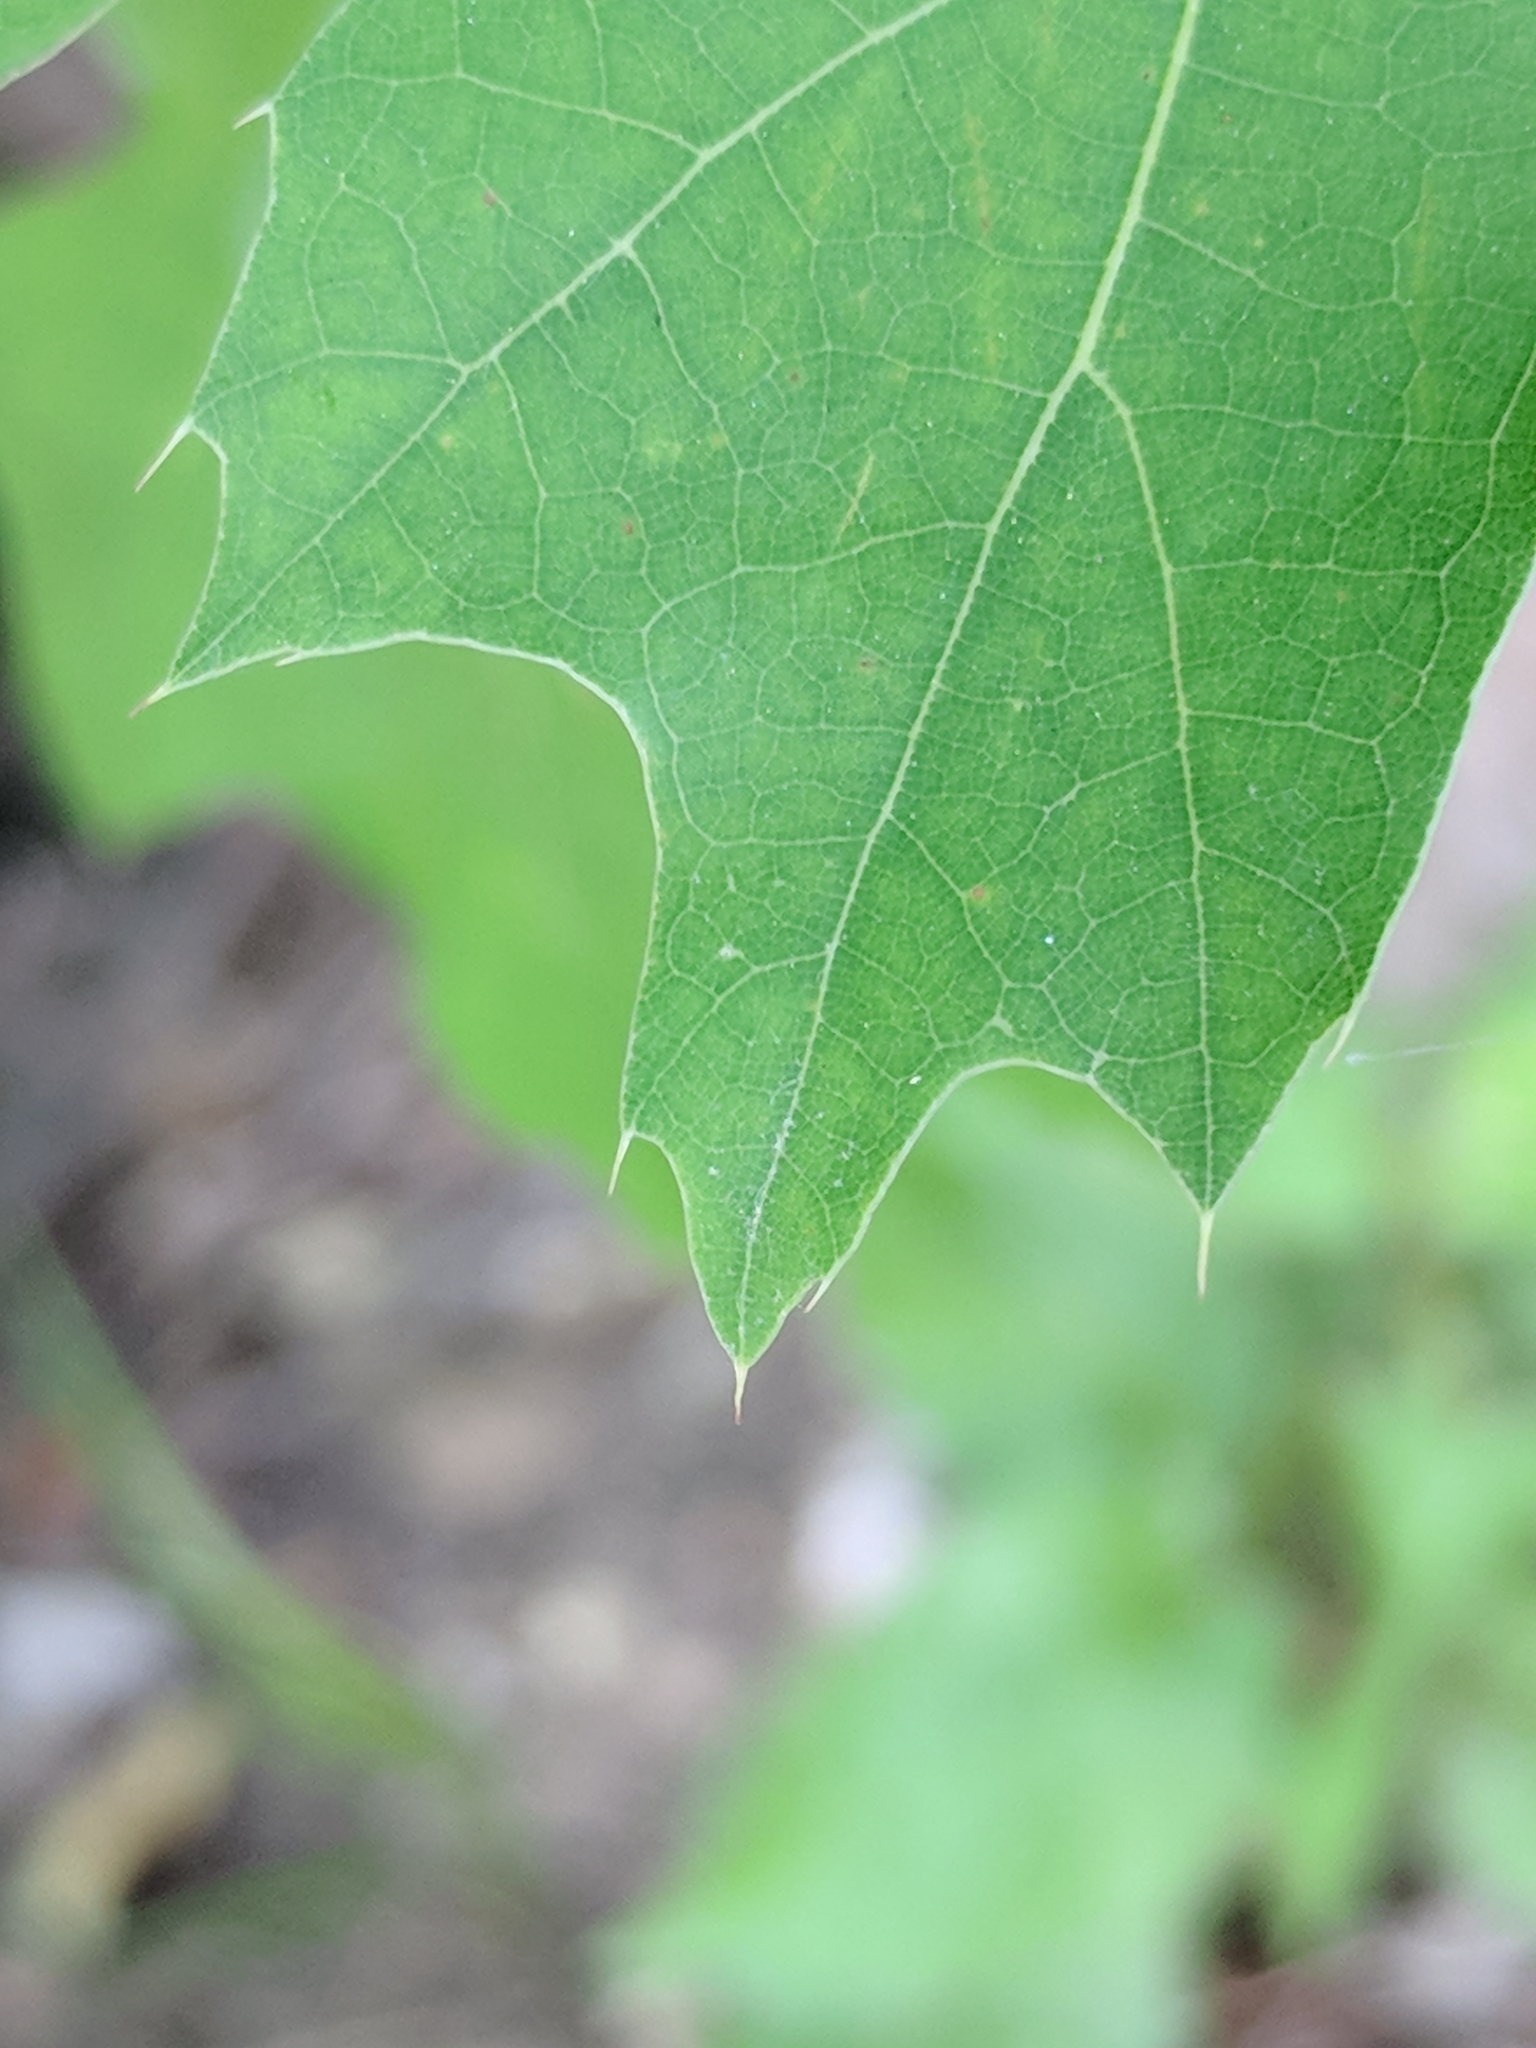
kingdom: Plantae
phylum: Tracheophyta
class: Magnoliopsida
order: Fagales
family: Fagaceae
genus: Quercus
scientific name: Quercus shumardii
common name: Shumard oak
